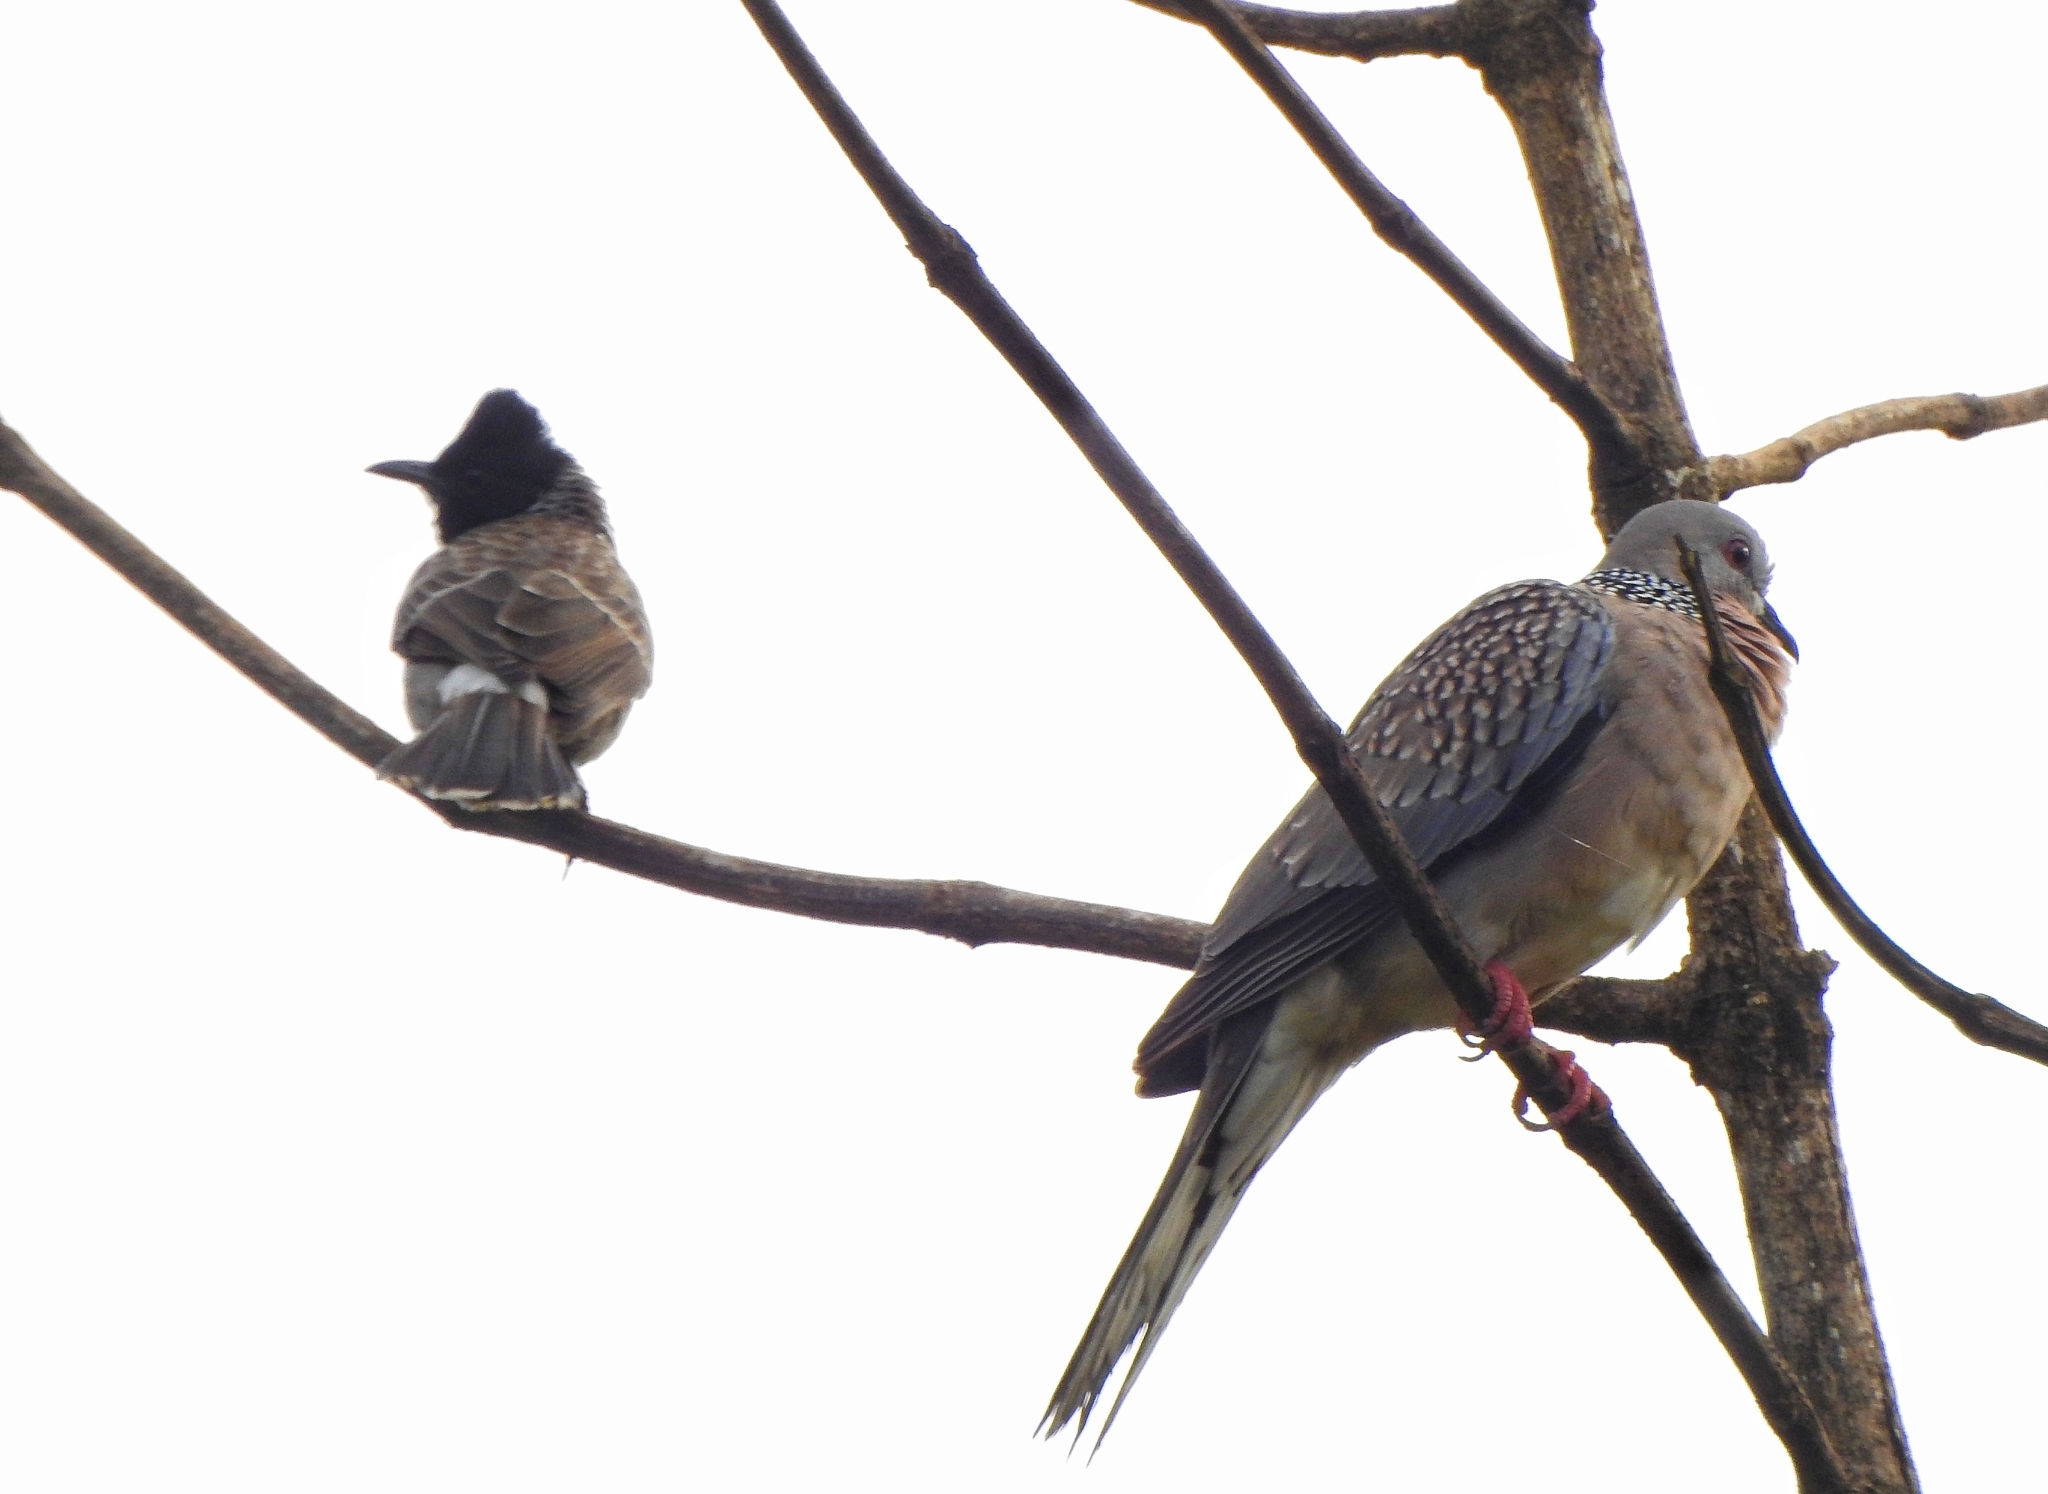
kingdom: Animalia
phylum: Chordata
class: Aves
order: Columbiformes
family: Columbidae
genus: Spilopelia
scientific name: Spilopelia chinensis
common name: Spotted dove
